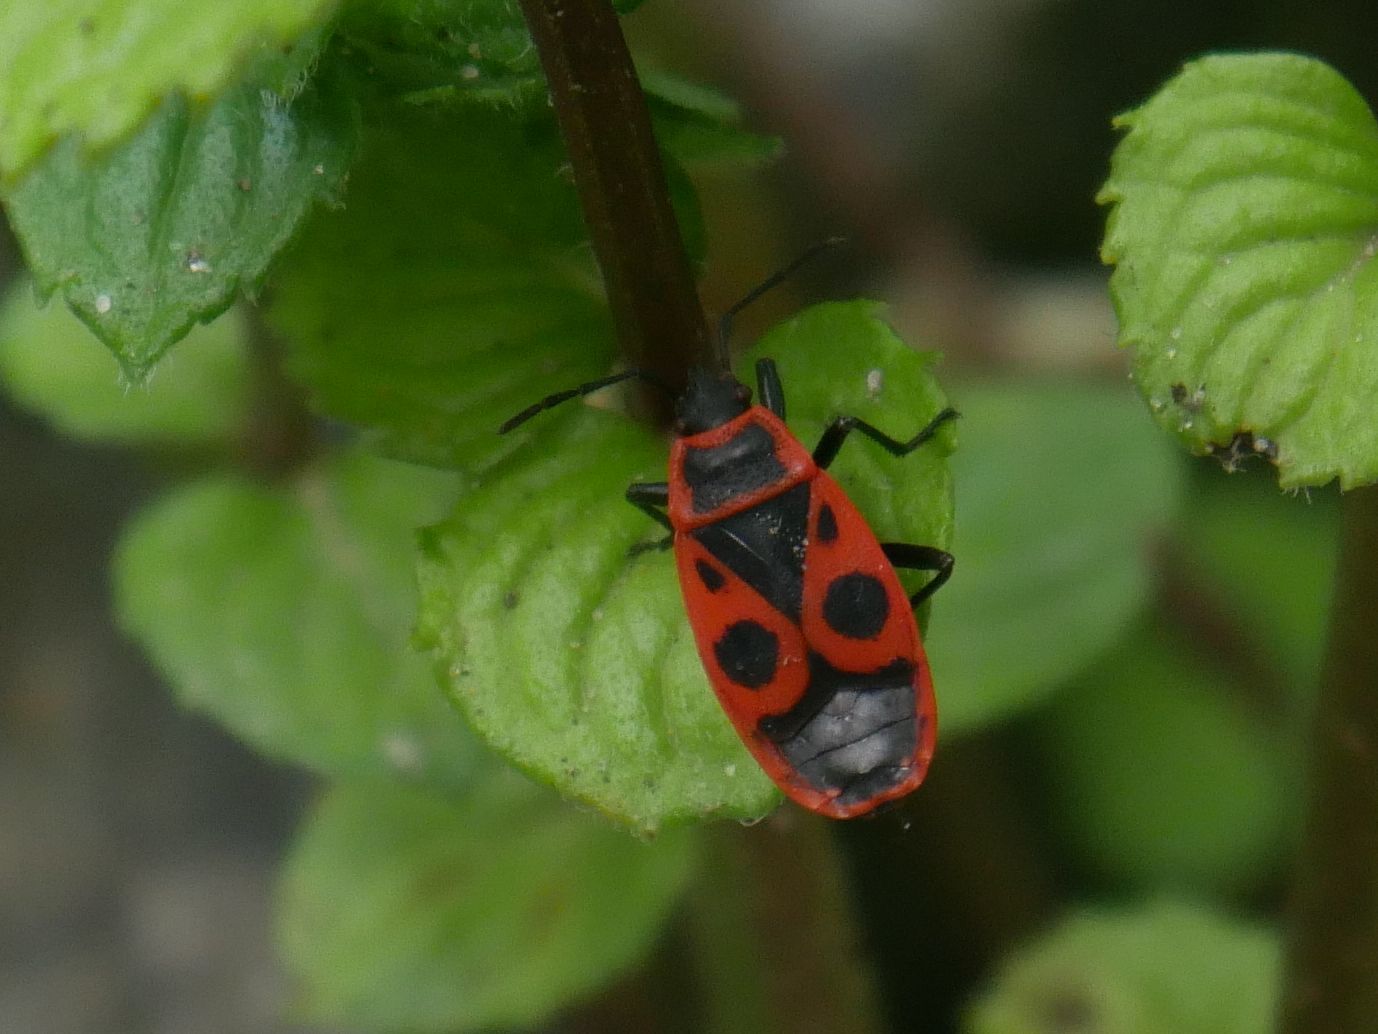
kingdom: Animalia
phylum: Arthropoda
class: Insecta
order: Hemiptera
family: Pyrrhocoridae
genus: Pyrrhocoris
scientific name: Pyrrhocoris apterus
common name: Firebug
